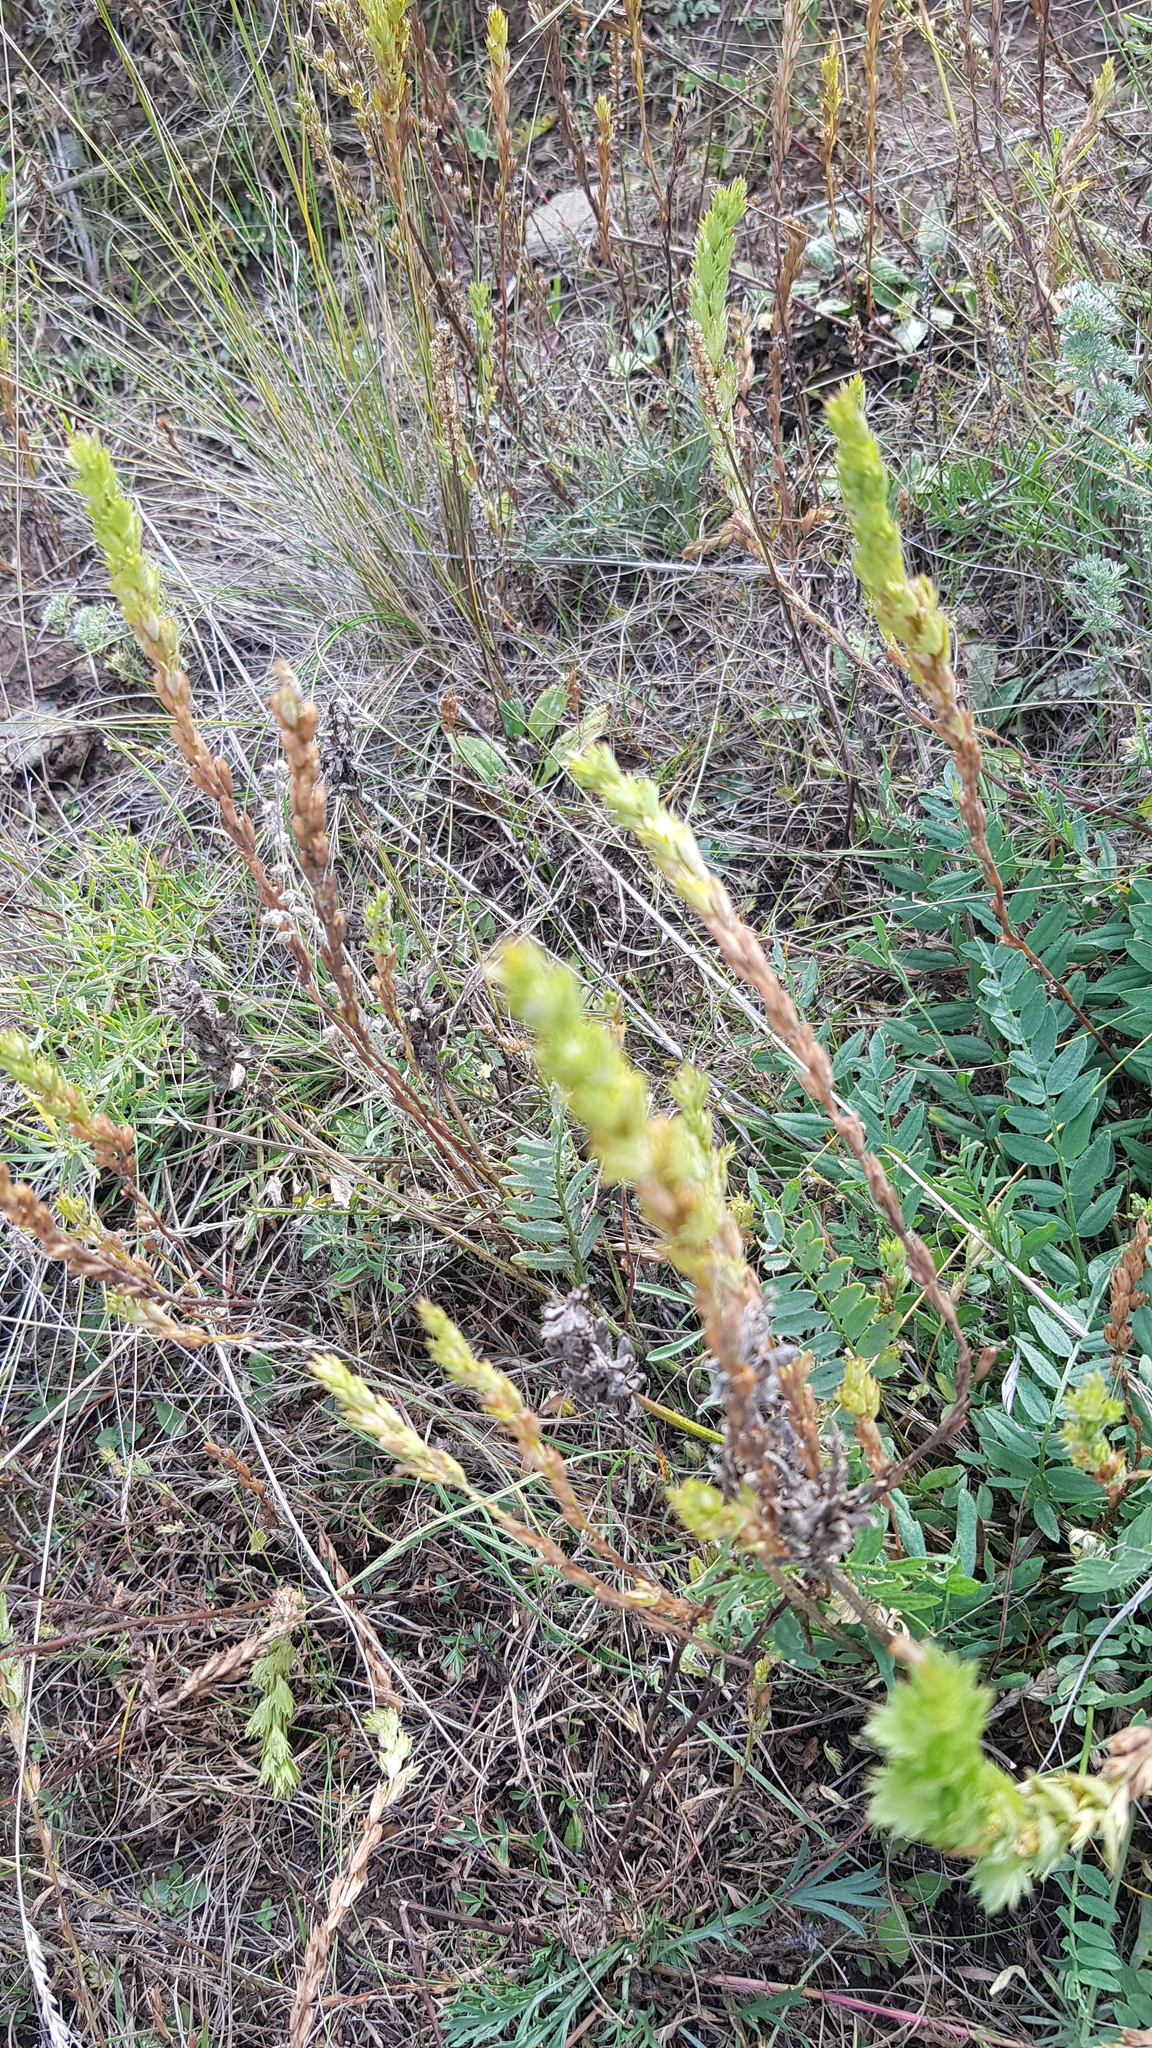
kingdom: Plantae
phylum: Tracheophyta
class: Magnoliopsida
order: Lamiales
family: Orobanchaceae
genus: Euphrasia
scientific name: Euphrasia pectinata
